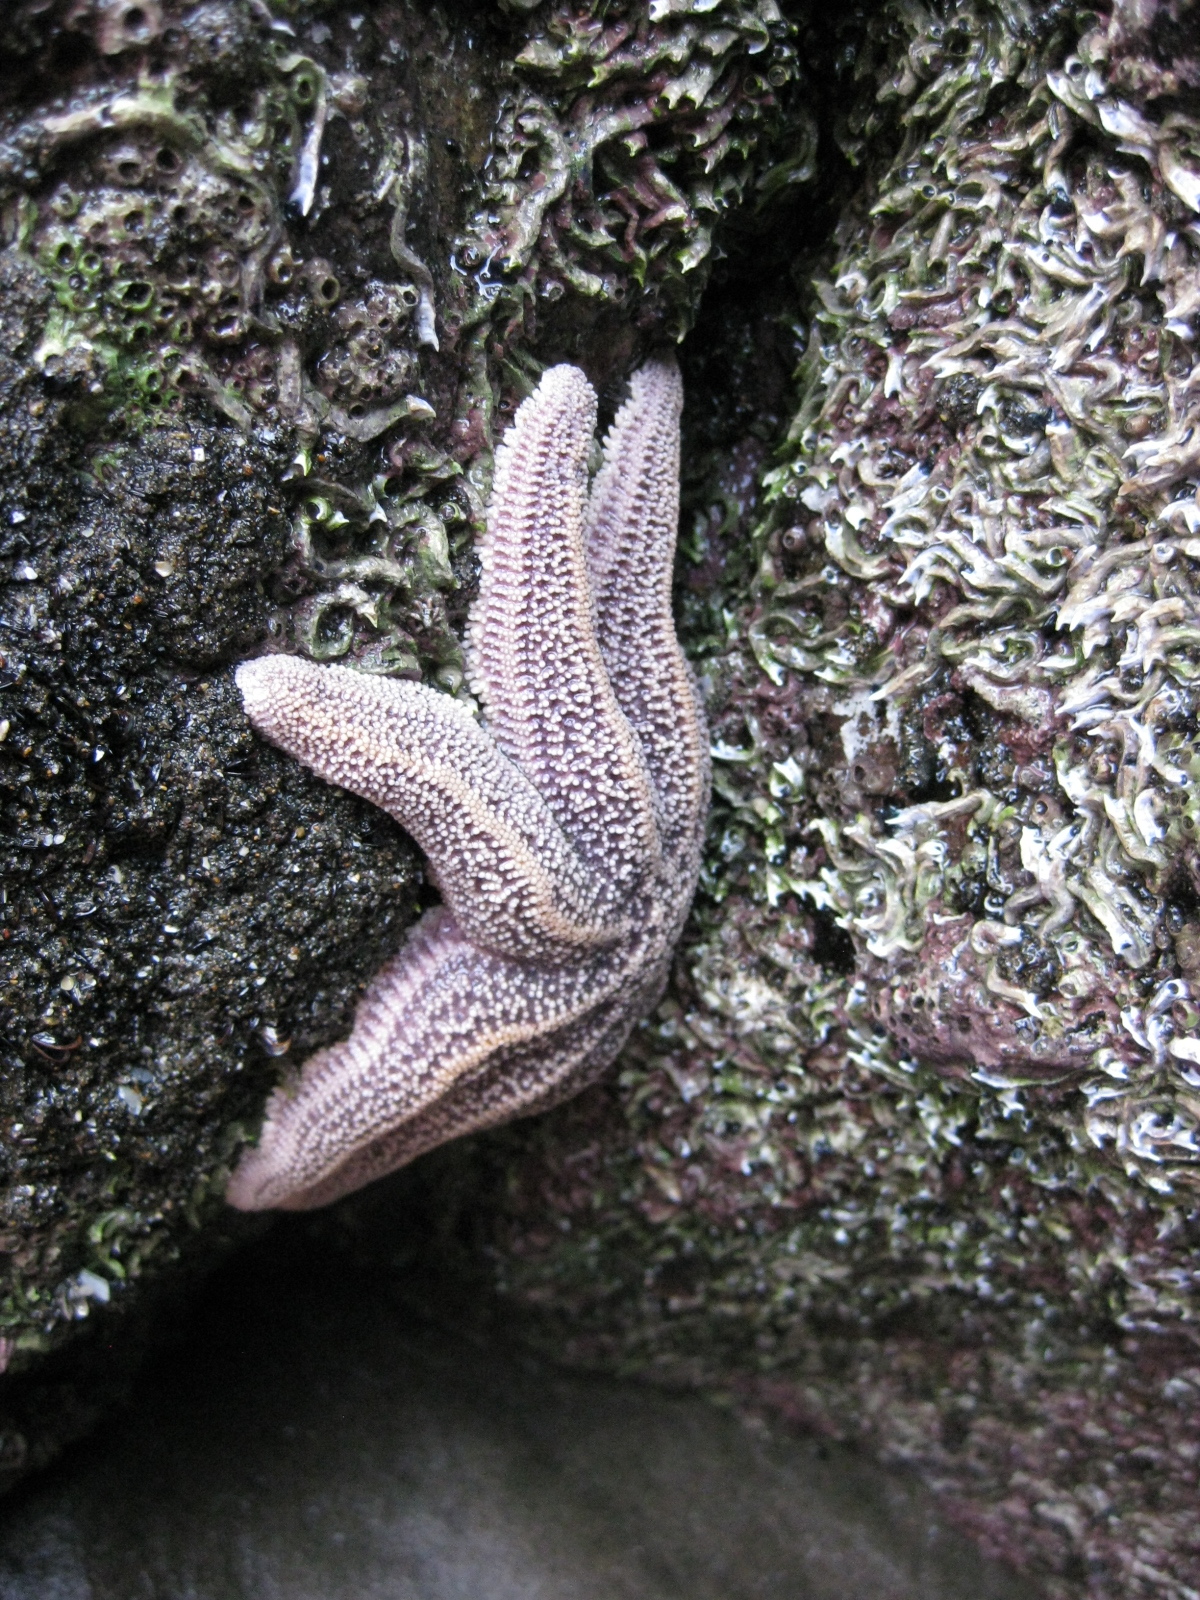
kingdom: Animalia
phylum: Echinodermata
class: Asteroidea
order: Forcipulatida
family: Stichasteridae
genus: Stichaster
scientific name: Stichaster australis
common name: Reef starfish
